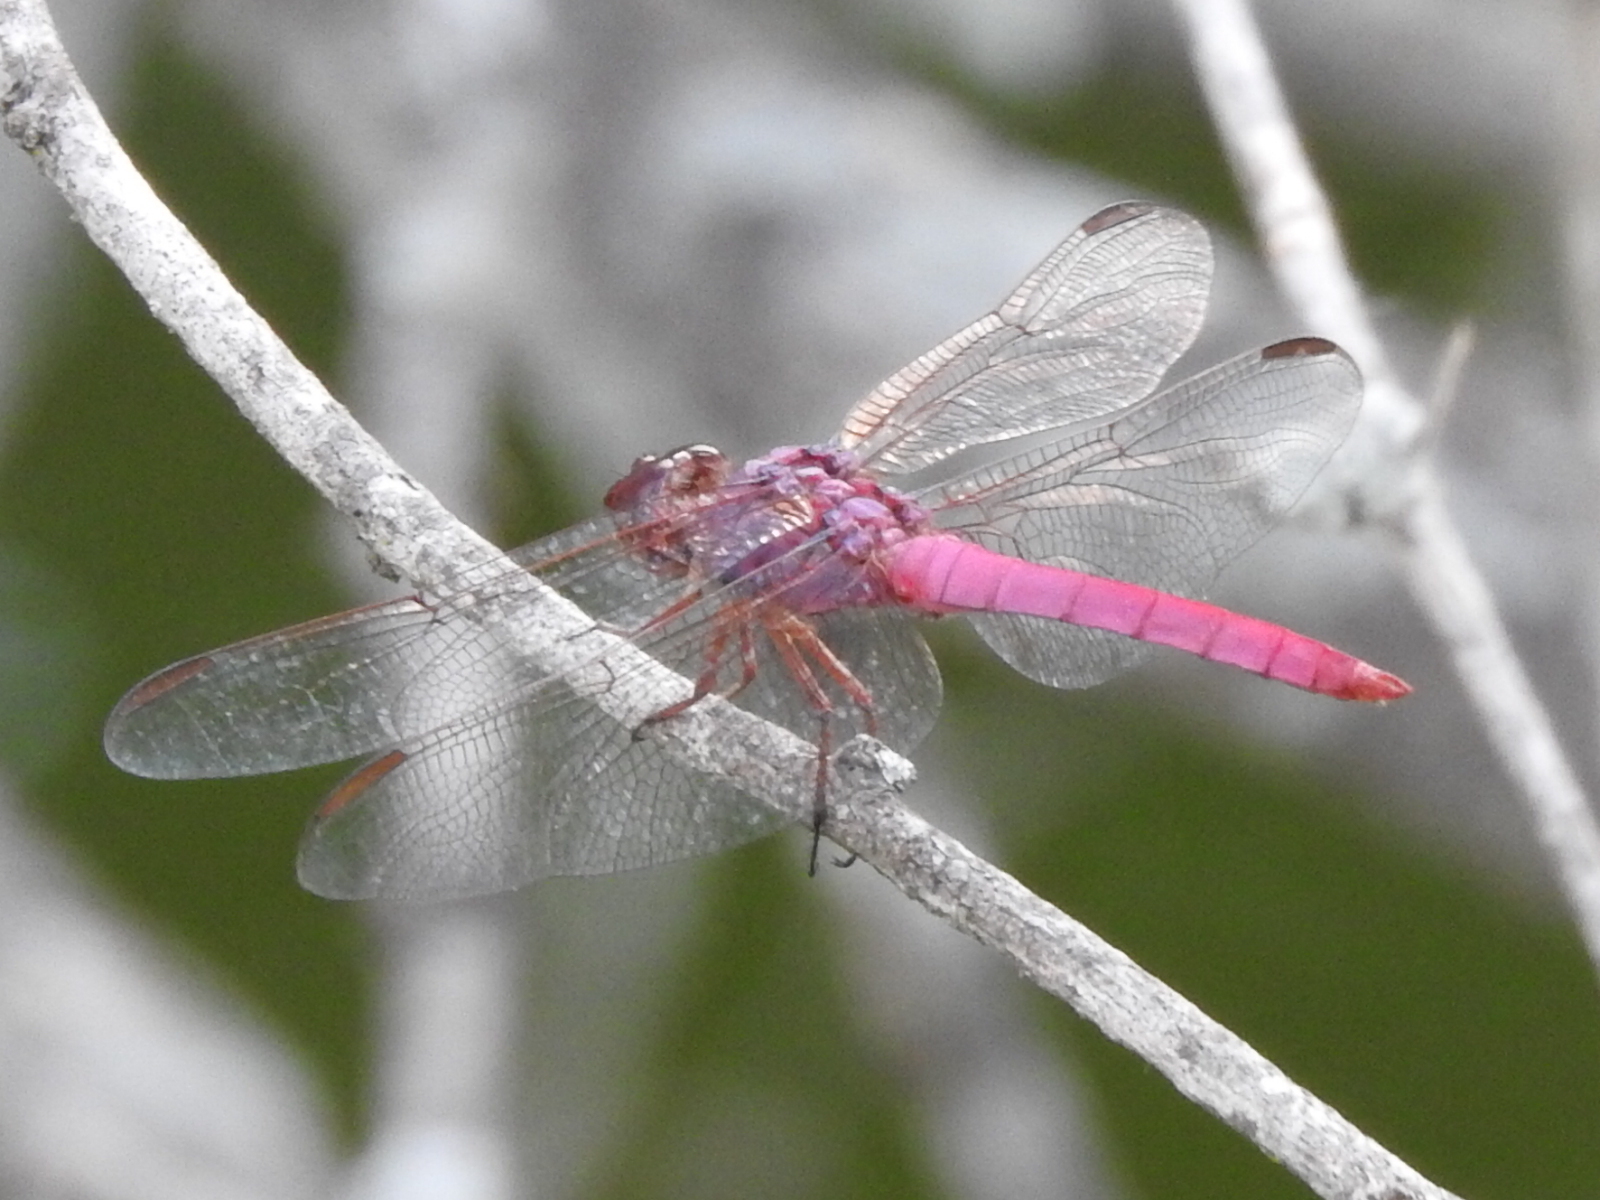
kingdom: Animalia
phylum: Arthropoda
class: Insecta
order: Odonata
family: Libellulidae
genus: Orthemis
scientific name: Orthemis ferruginea
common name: Roseate skimmer
